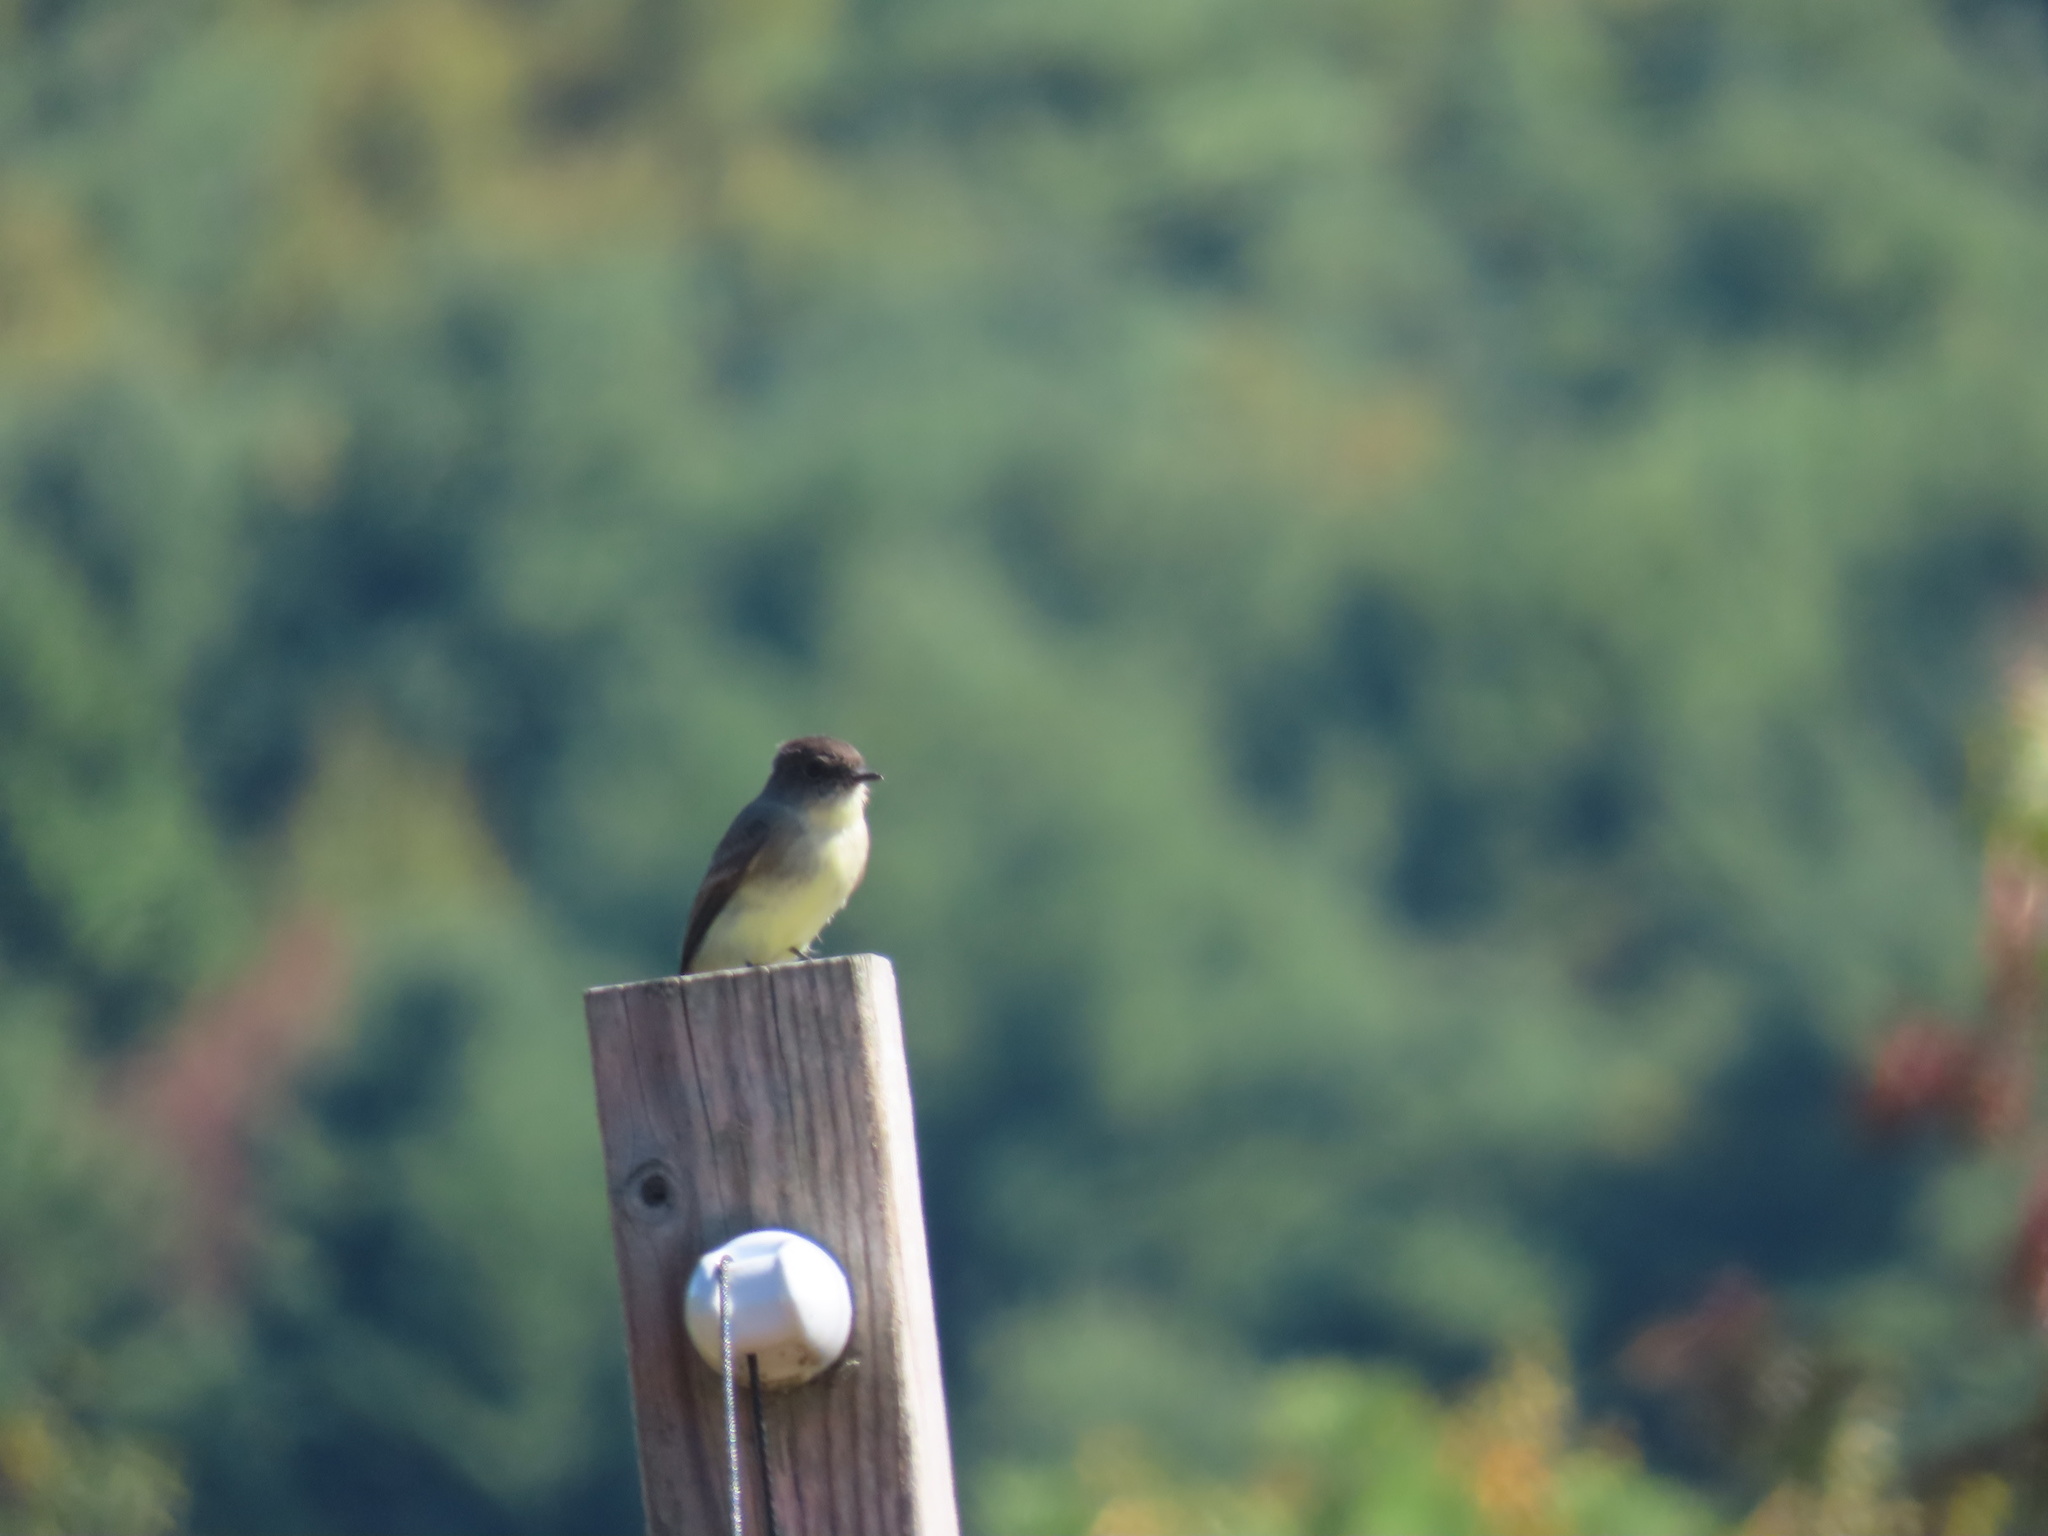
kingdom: Animalia
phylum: Chordata
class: Aves
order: Passeriformes
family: Tyrannidae
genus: Sayornis
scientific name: Sayornis phoebe
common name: Eastern phoebe
